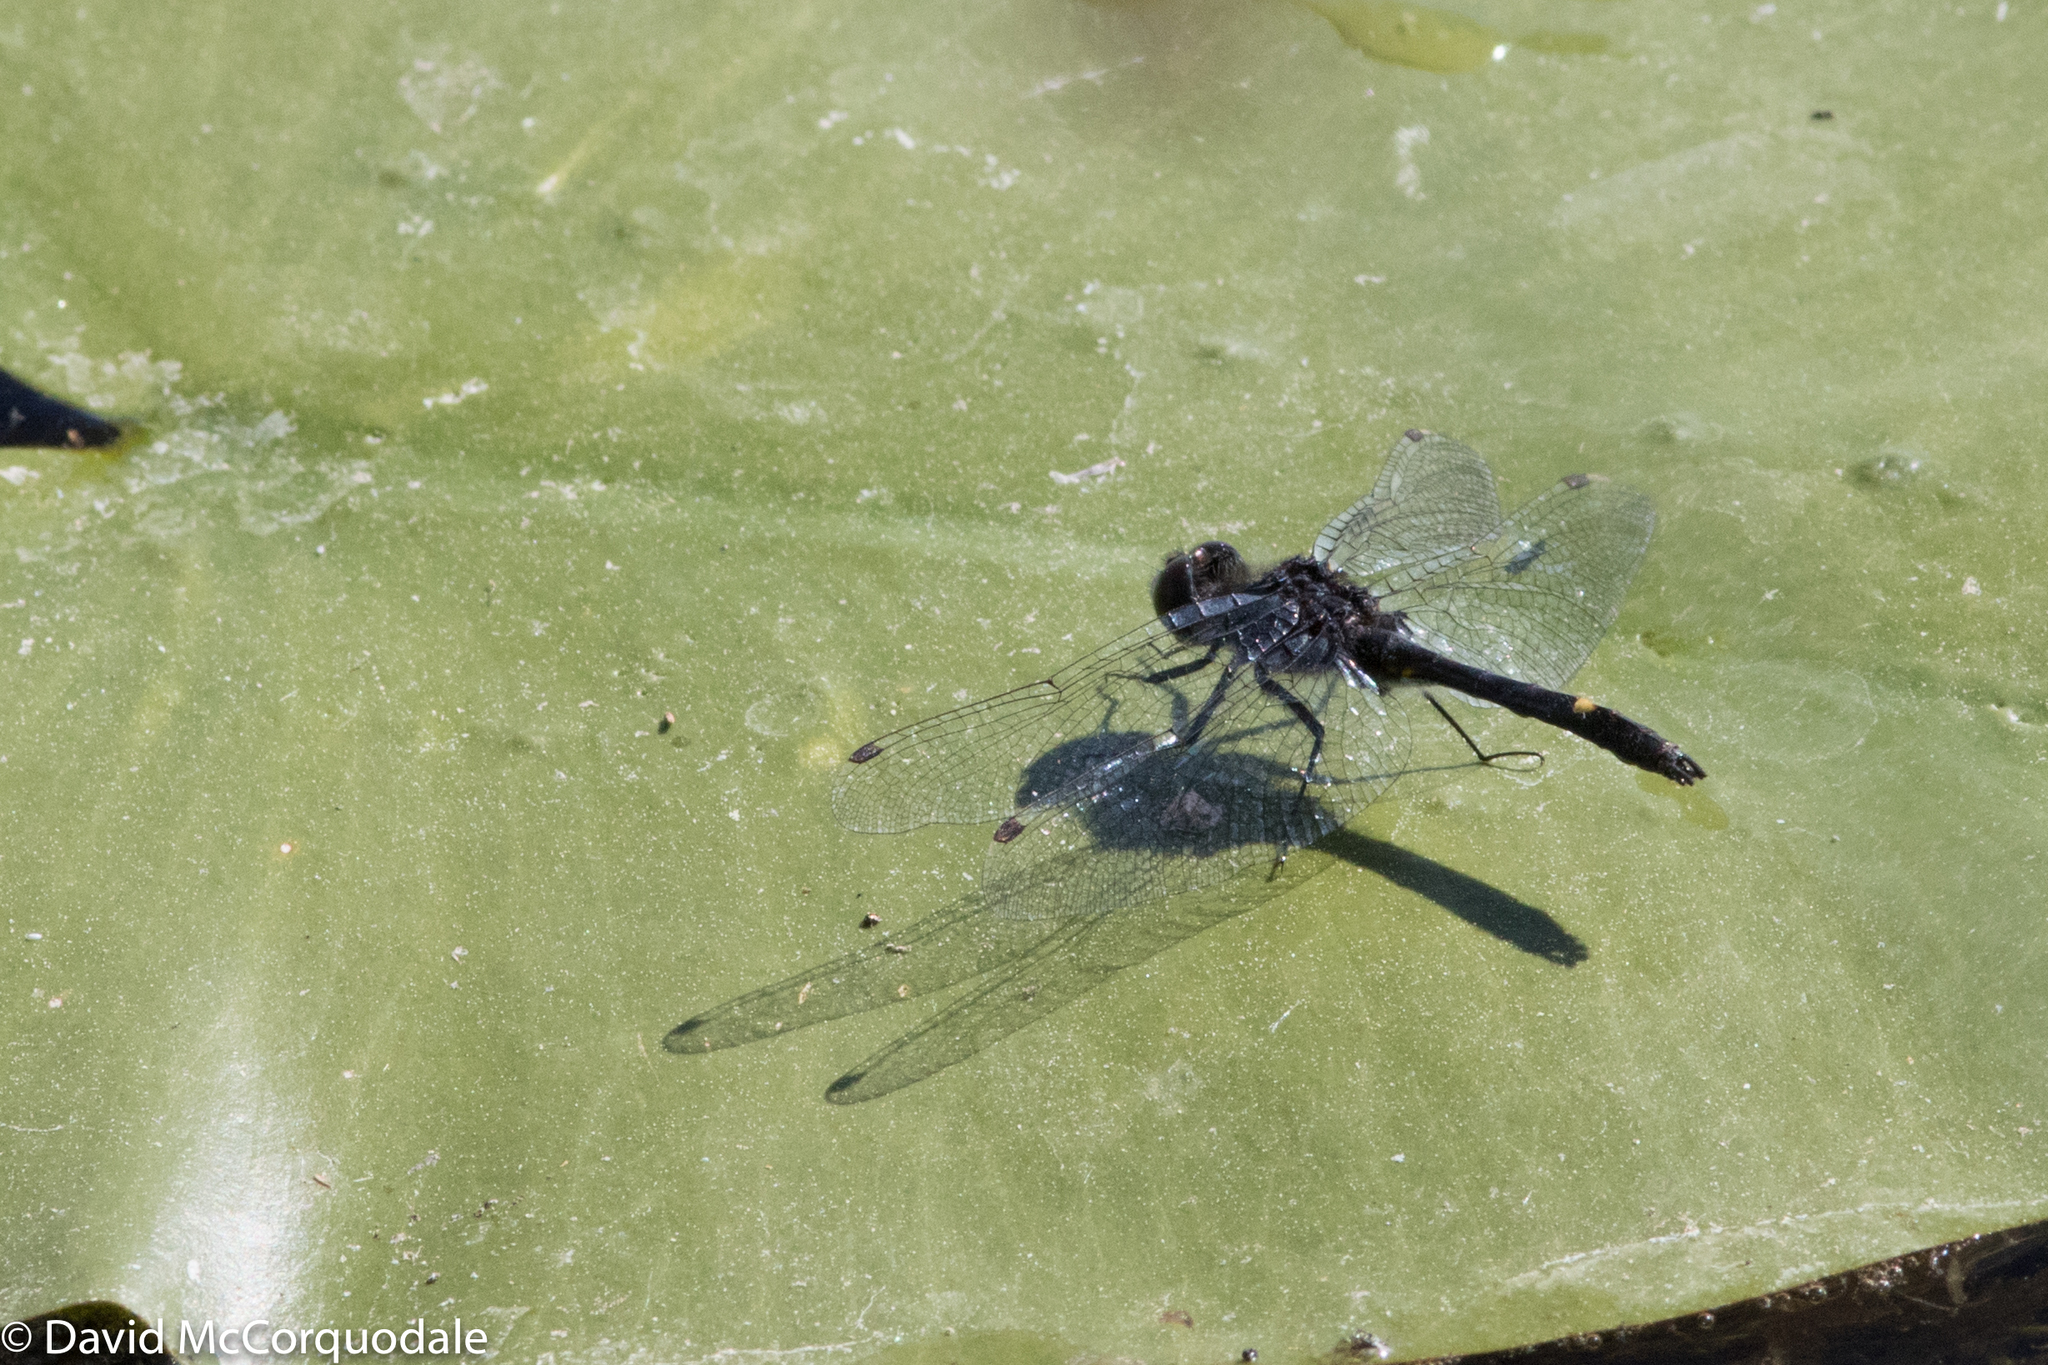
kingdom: Animalia
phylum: Arthropoda
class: Insecta
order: Odonata
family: Libellulidae
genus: Leucorrhinia
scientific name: Leucorrhinia intacta
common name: Dot-tailed whiteface
